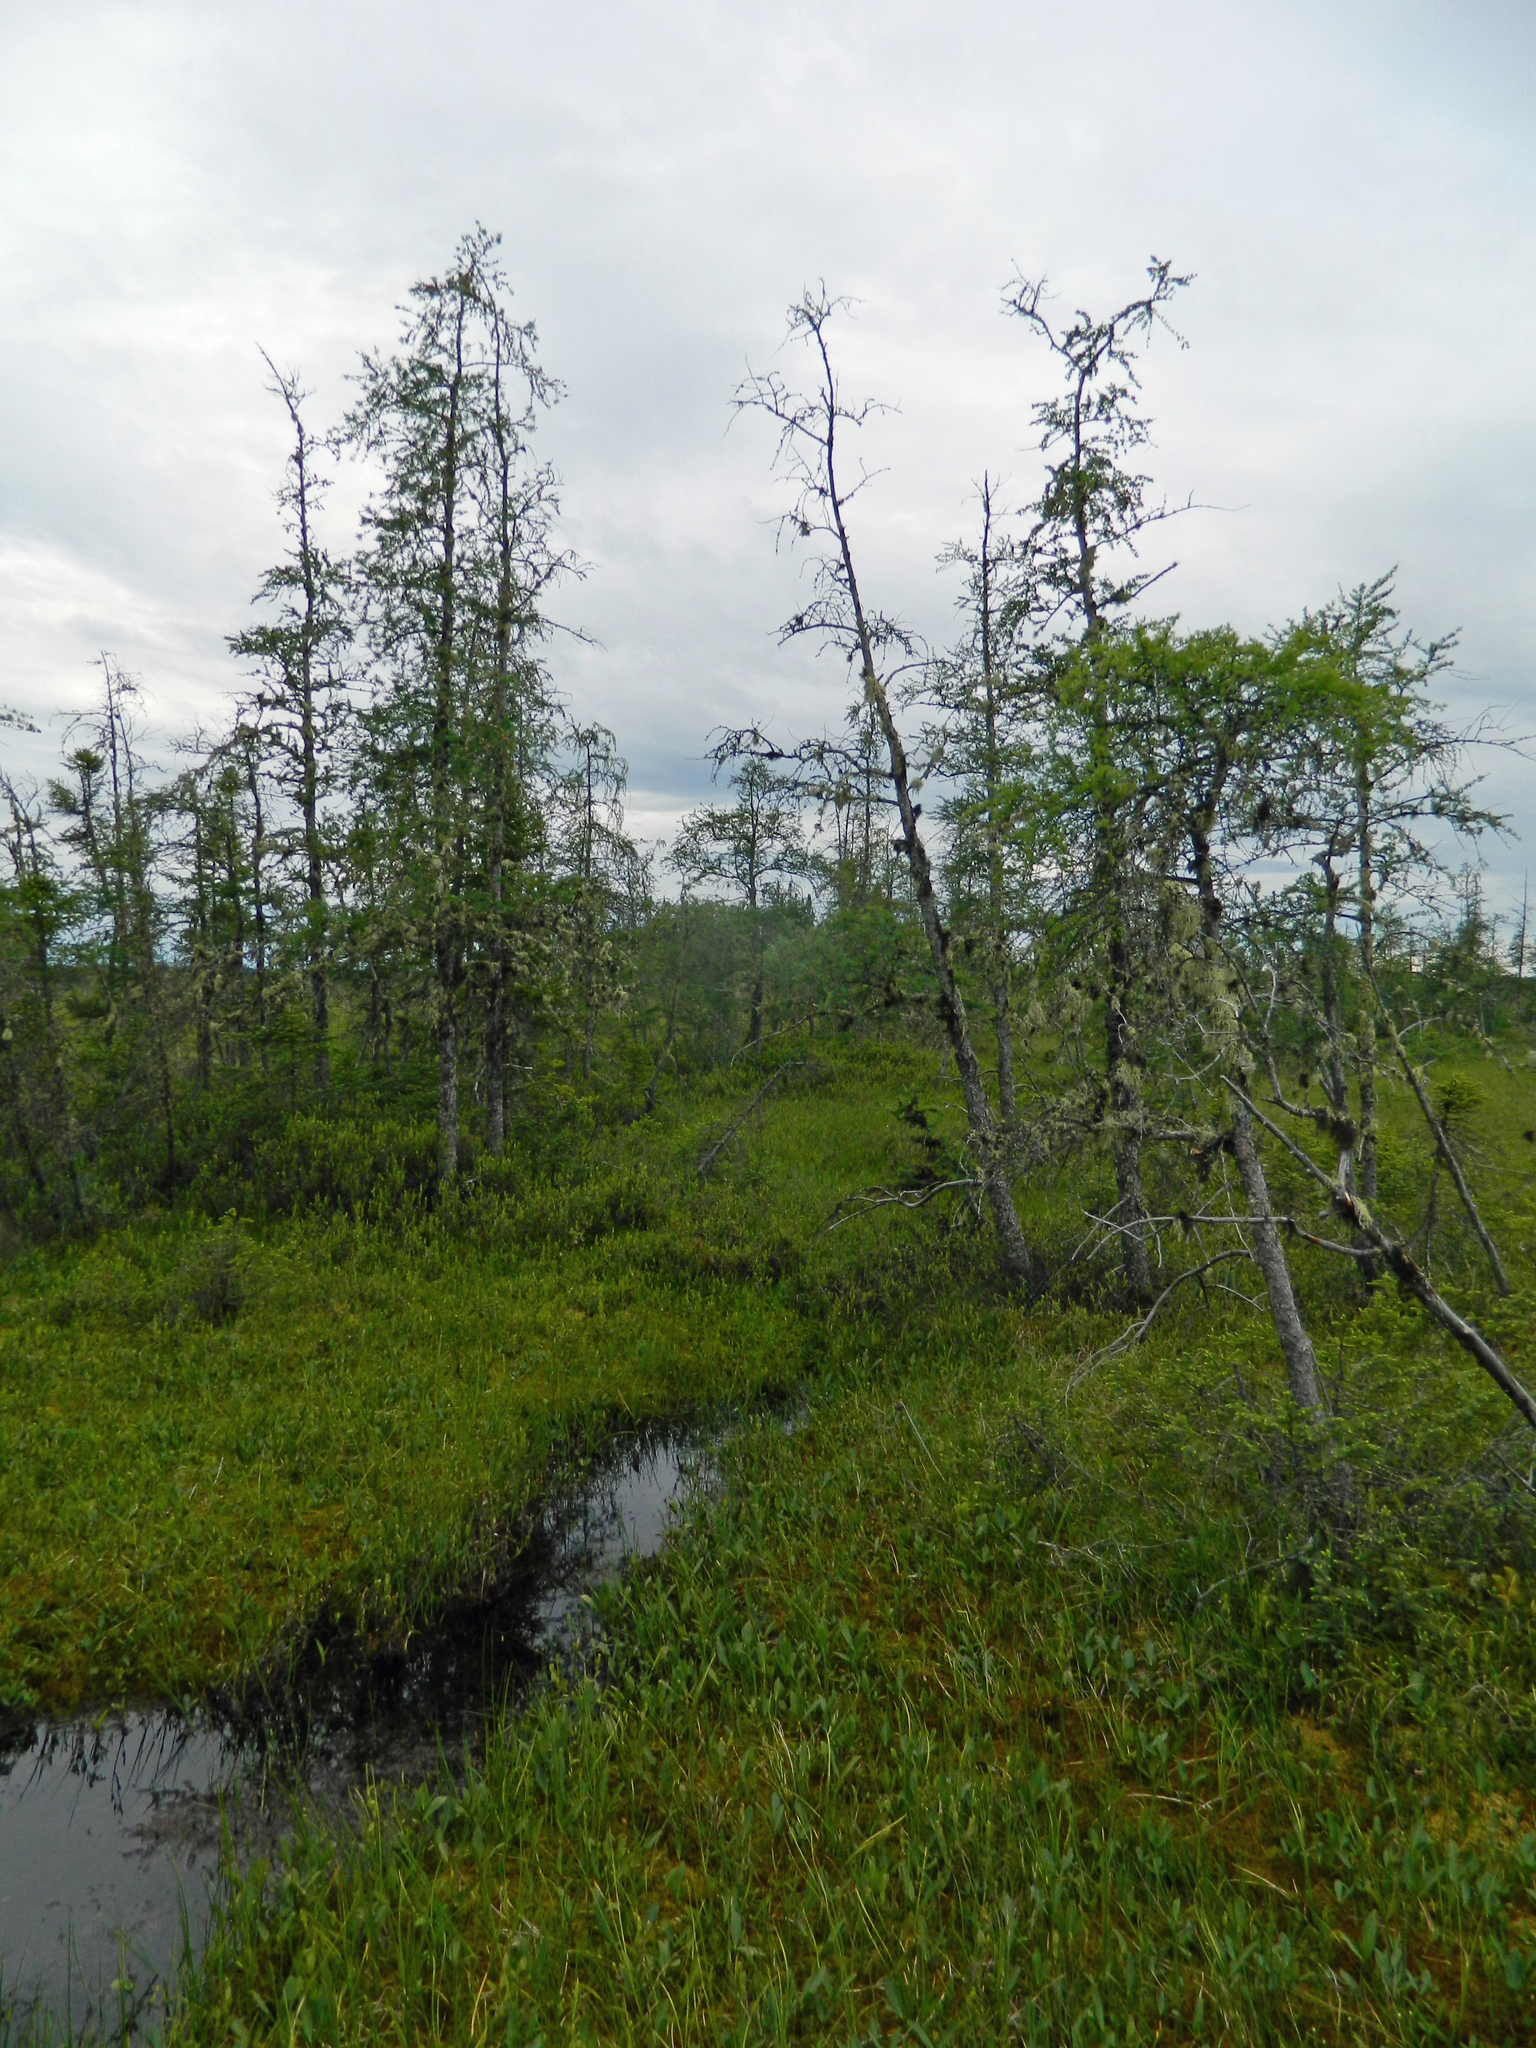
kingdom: Plantae
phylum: Tracheophyta
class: Pinopsida
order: Pinales
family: Pinaceae
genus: Larix
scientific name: Larix laricina
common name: American larch
